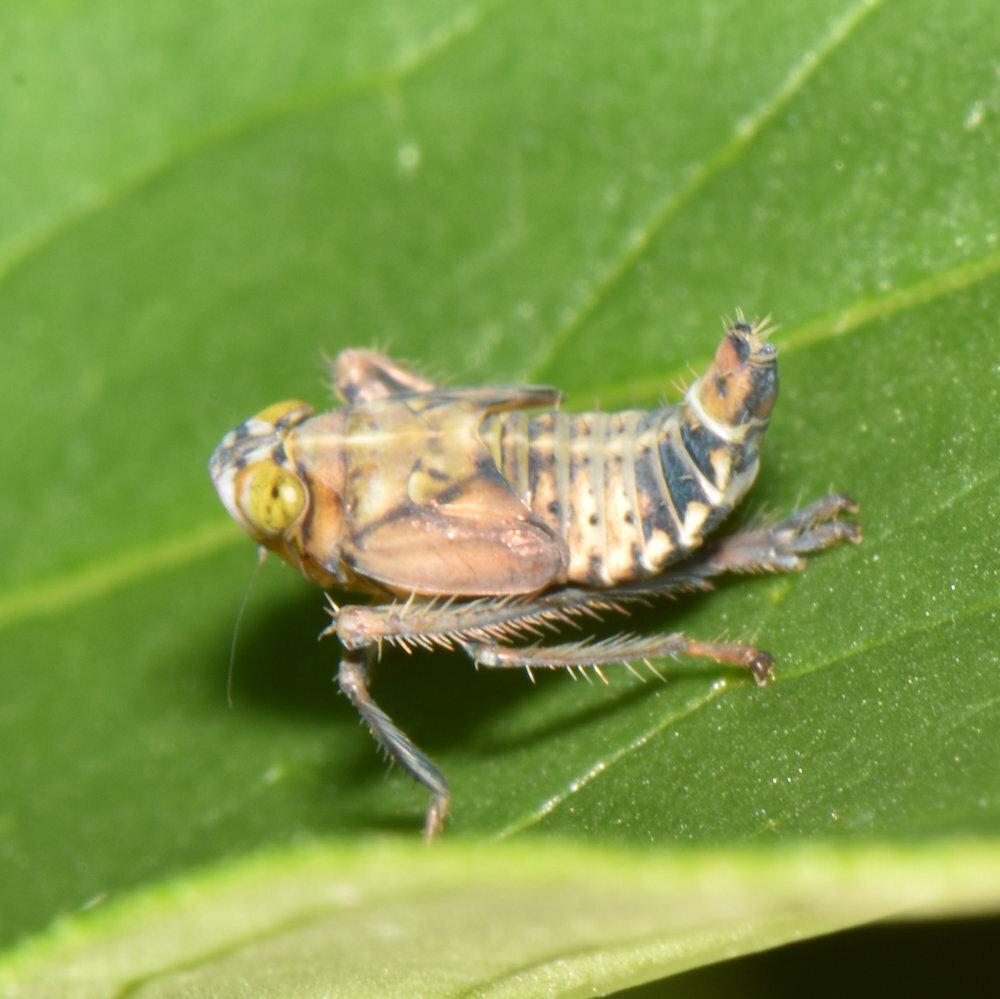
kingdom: Animalia
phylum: Arthropoda
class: Insecta
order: Hemiptera
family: Cicadellidae
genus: Jikradia
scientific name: Jikradia olitoria
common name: Coppery leafhopper
